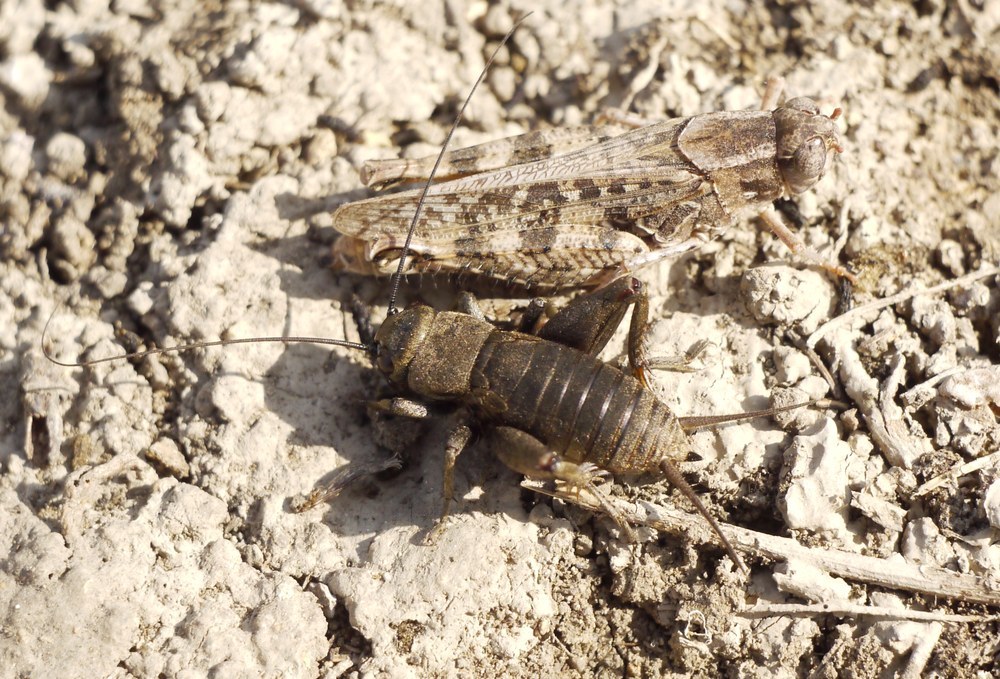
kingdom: Animalia
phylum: Arthropoda
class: Insecta
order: Orthoptera
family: Gryllidae
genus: Melanogryllus
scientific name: Melanogryllus desertus
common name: Desert cricket
